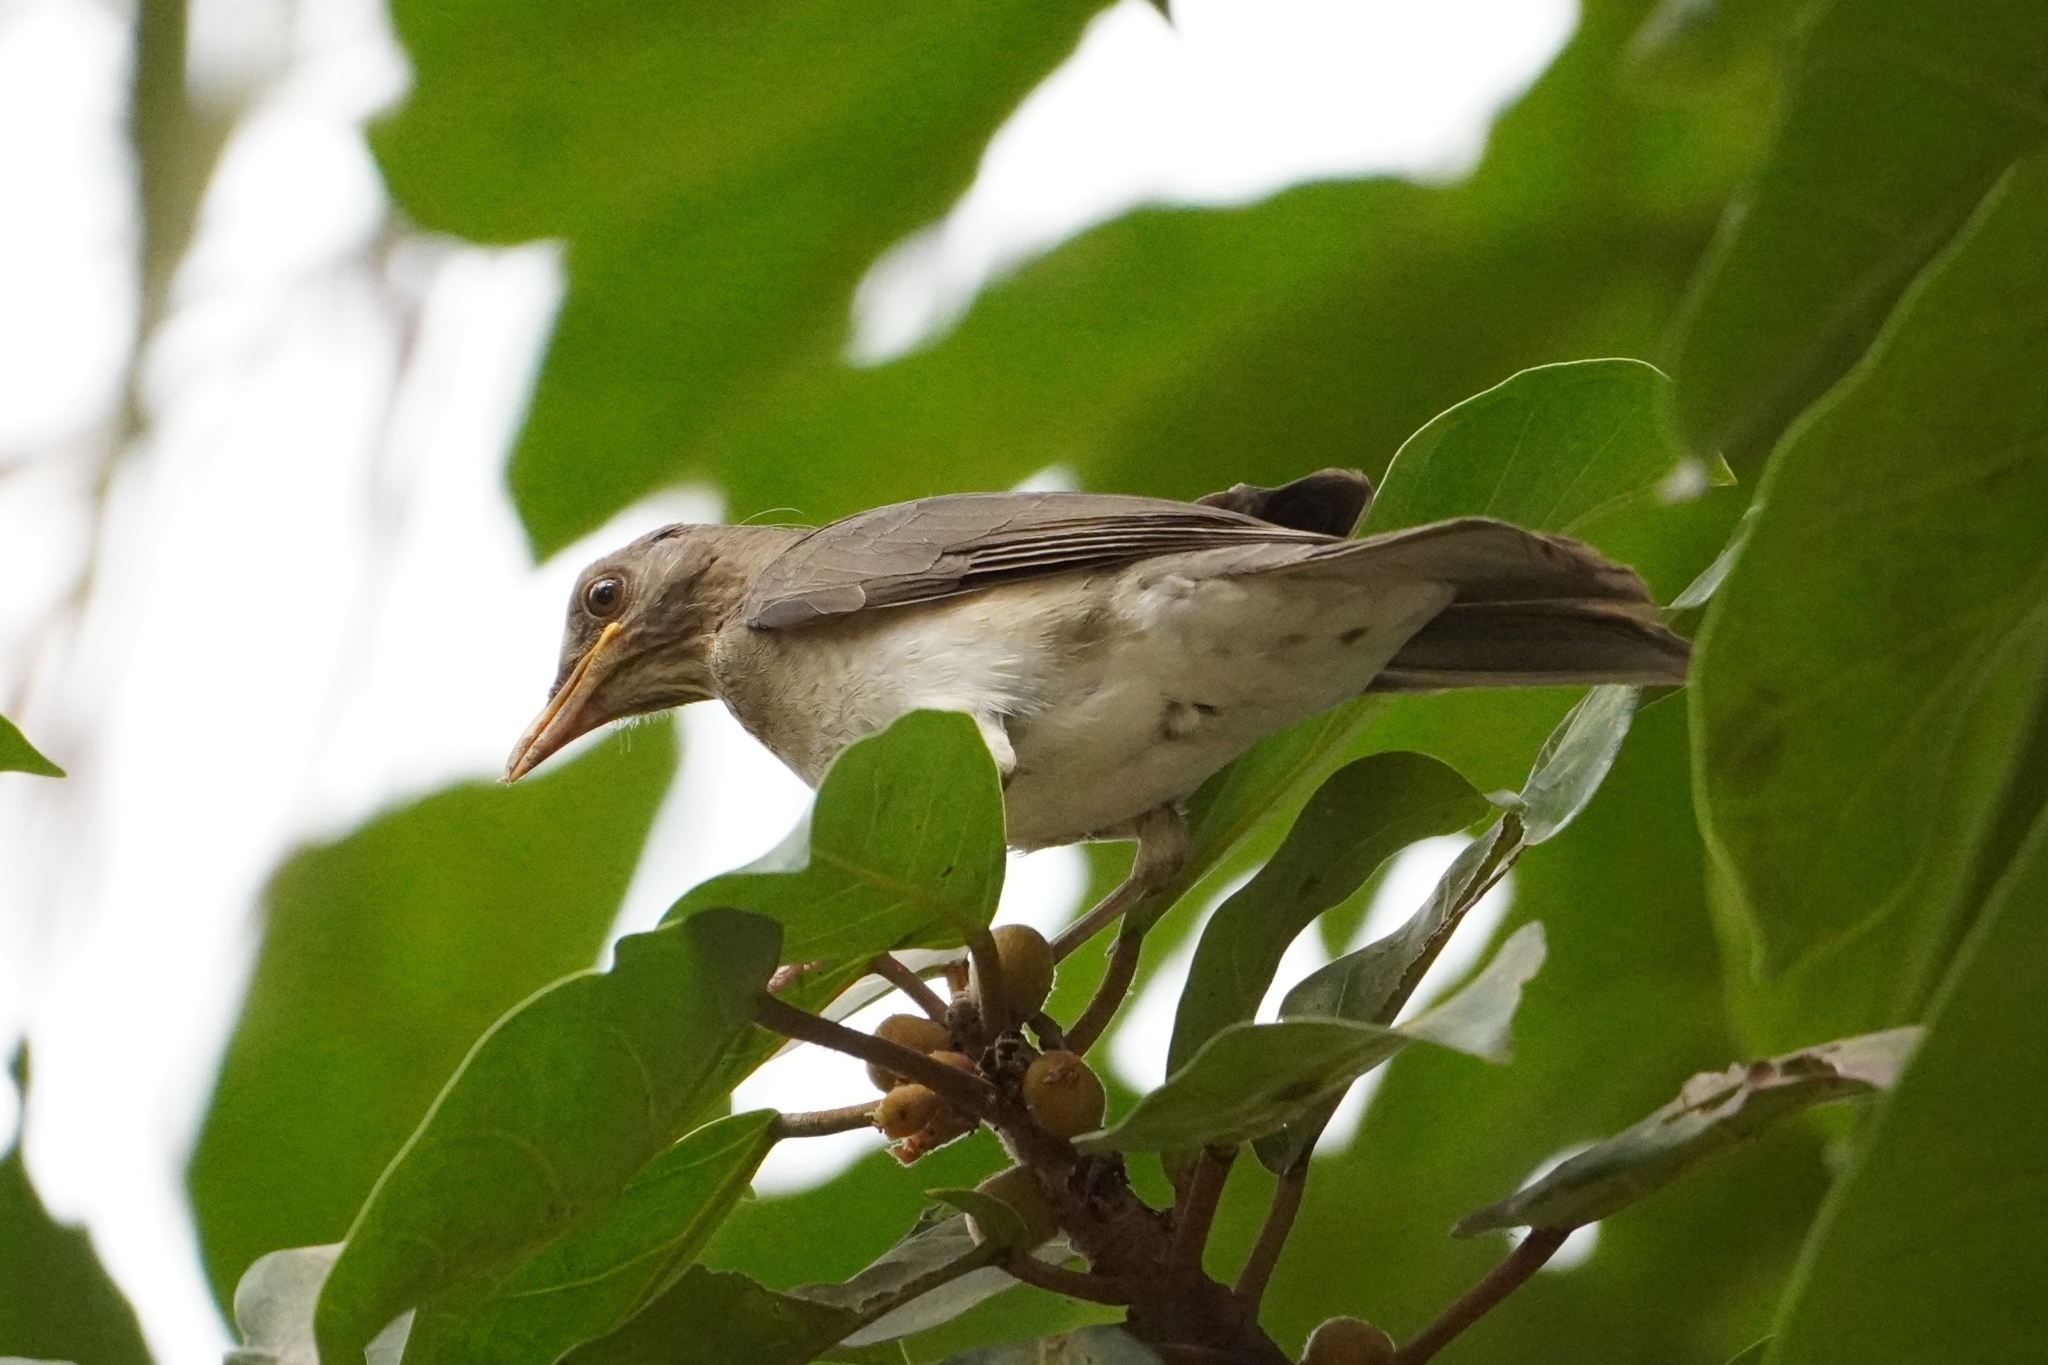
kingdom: Animalia
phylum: Chordata
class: Aves
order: Passeriformes
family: Turdidae
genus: Turdus
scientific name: Turdus pelios
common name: African thrush
